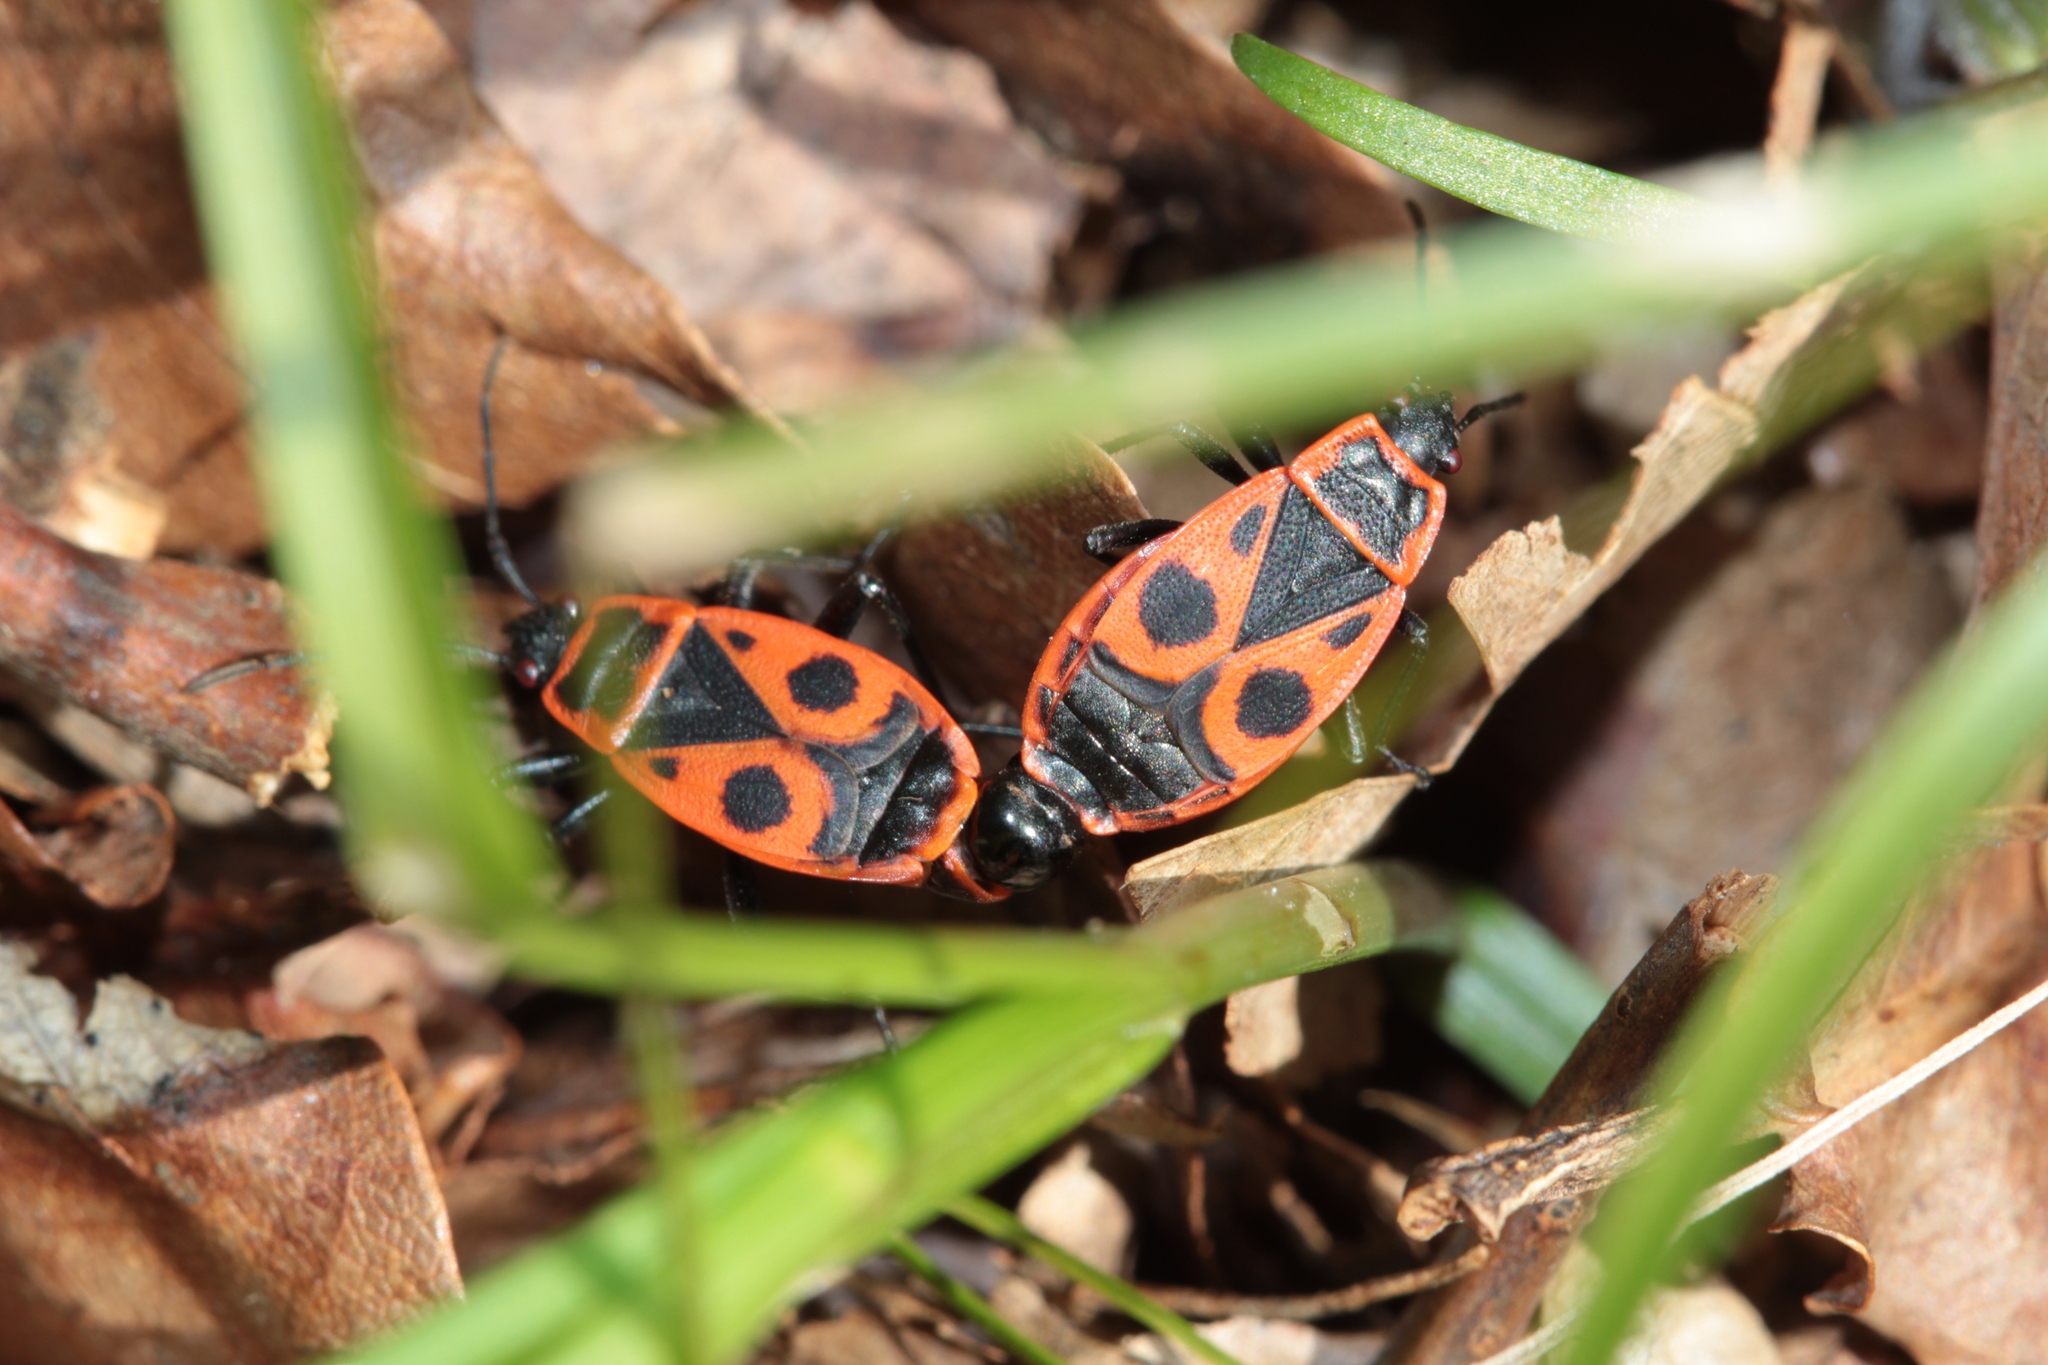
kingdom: Animalia
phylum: Arthropoda
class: Insecta
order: Hemiptera
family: Pyrrhocoridae
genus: Pyrrhocoris
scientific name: Pyrrhocoris apterus
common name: Firebug
